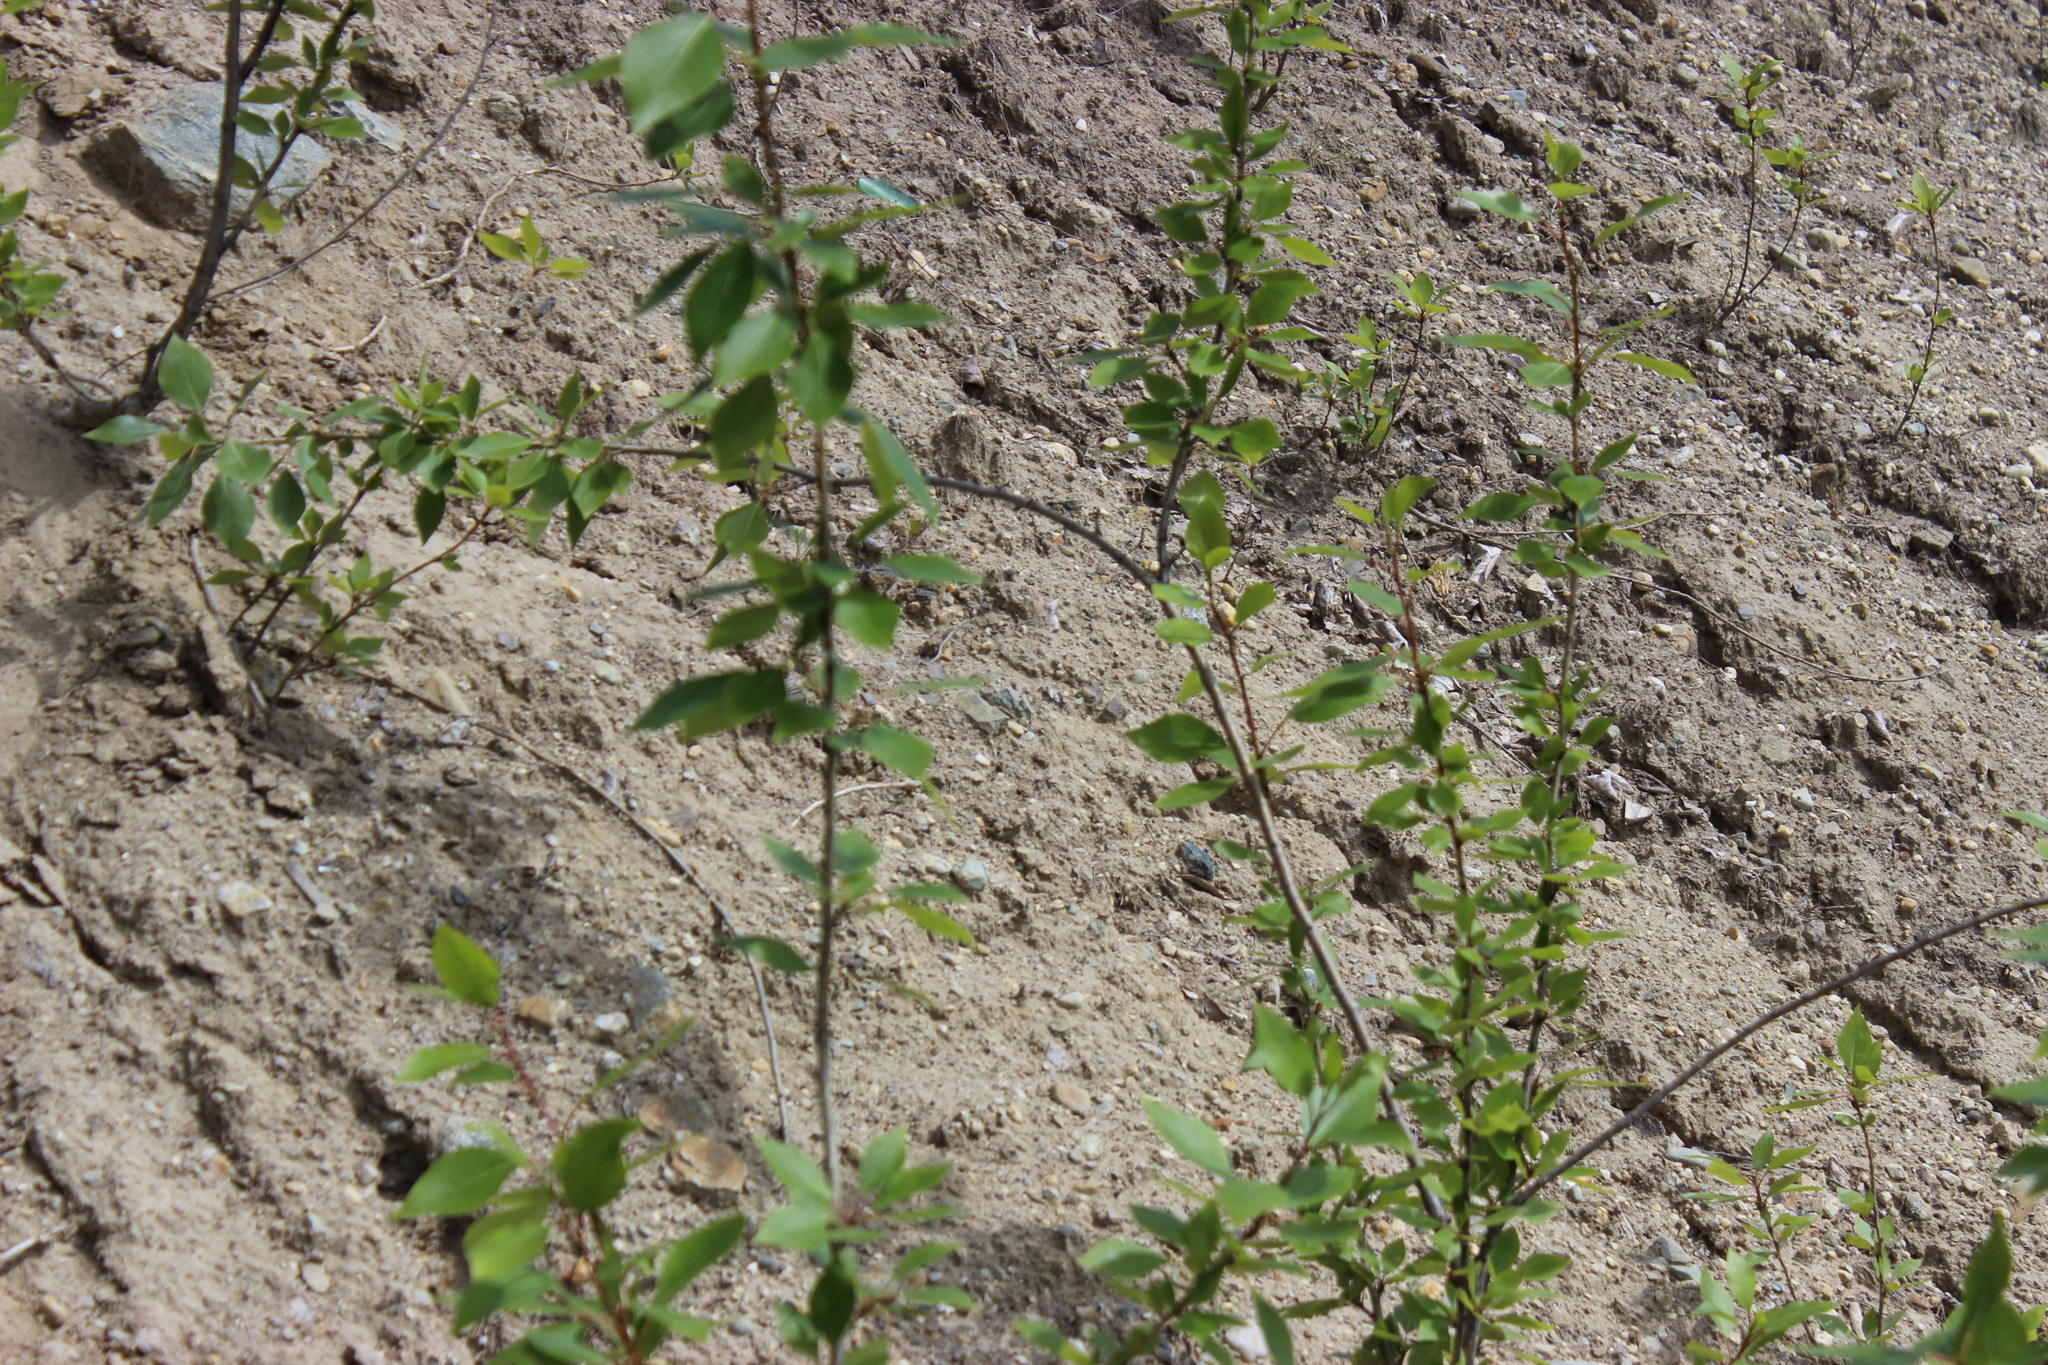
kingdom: Plantae
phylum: Tracheophyta
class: Magnoliopsida
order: Malpighiales
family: Salicaceae
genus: Populus
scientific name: Populus tremula
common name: European aspen
